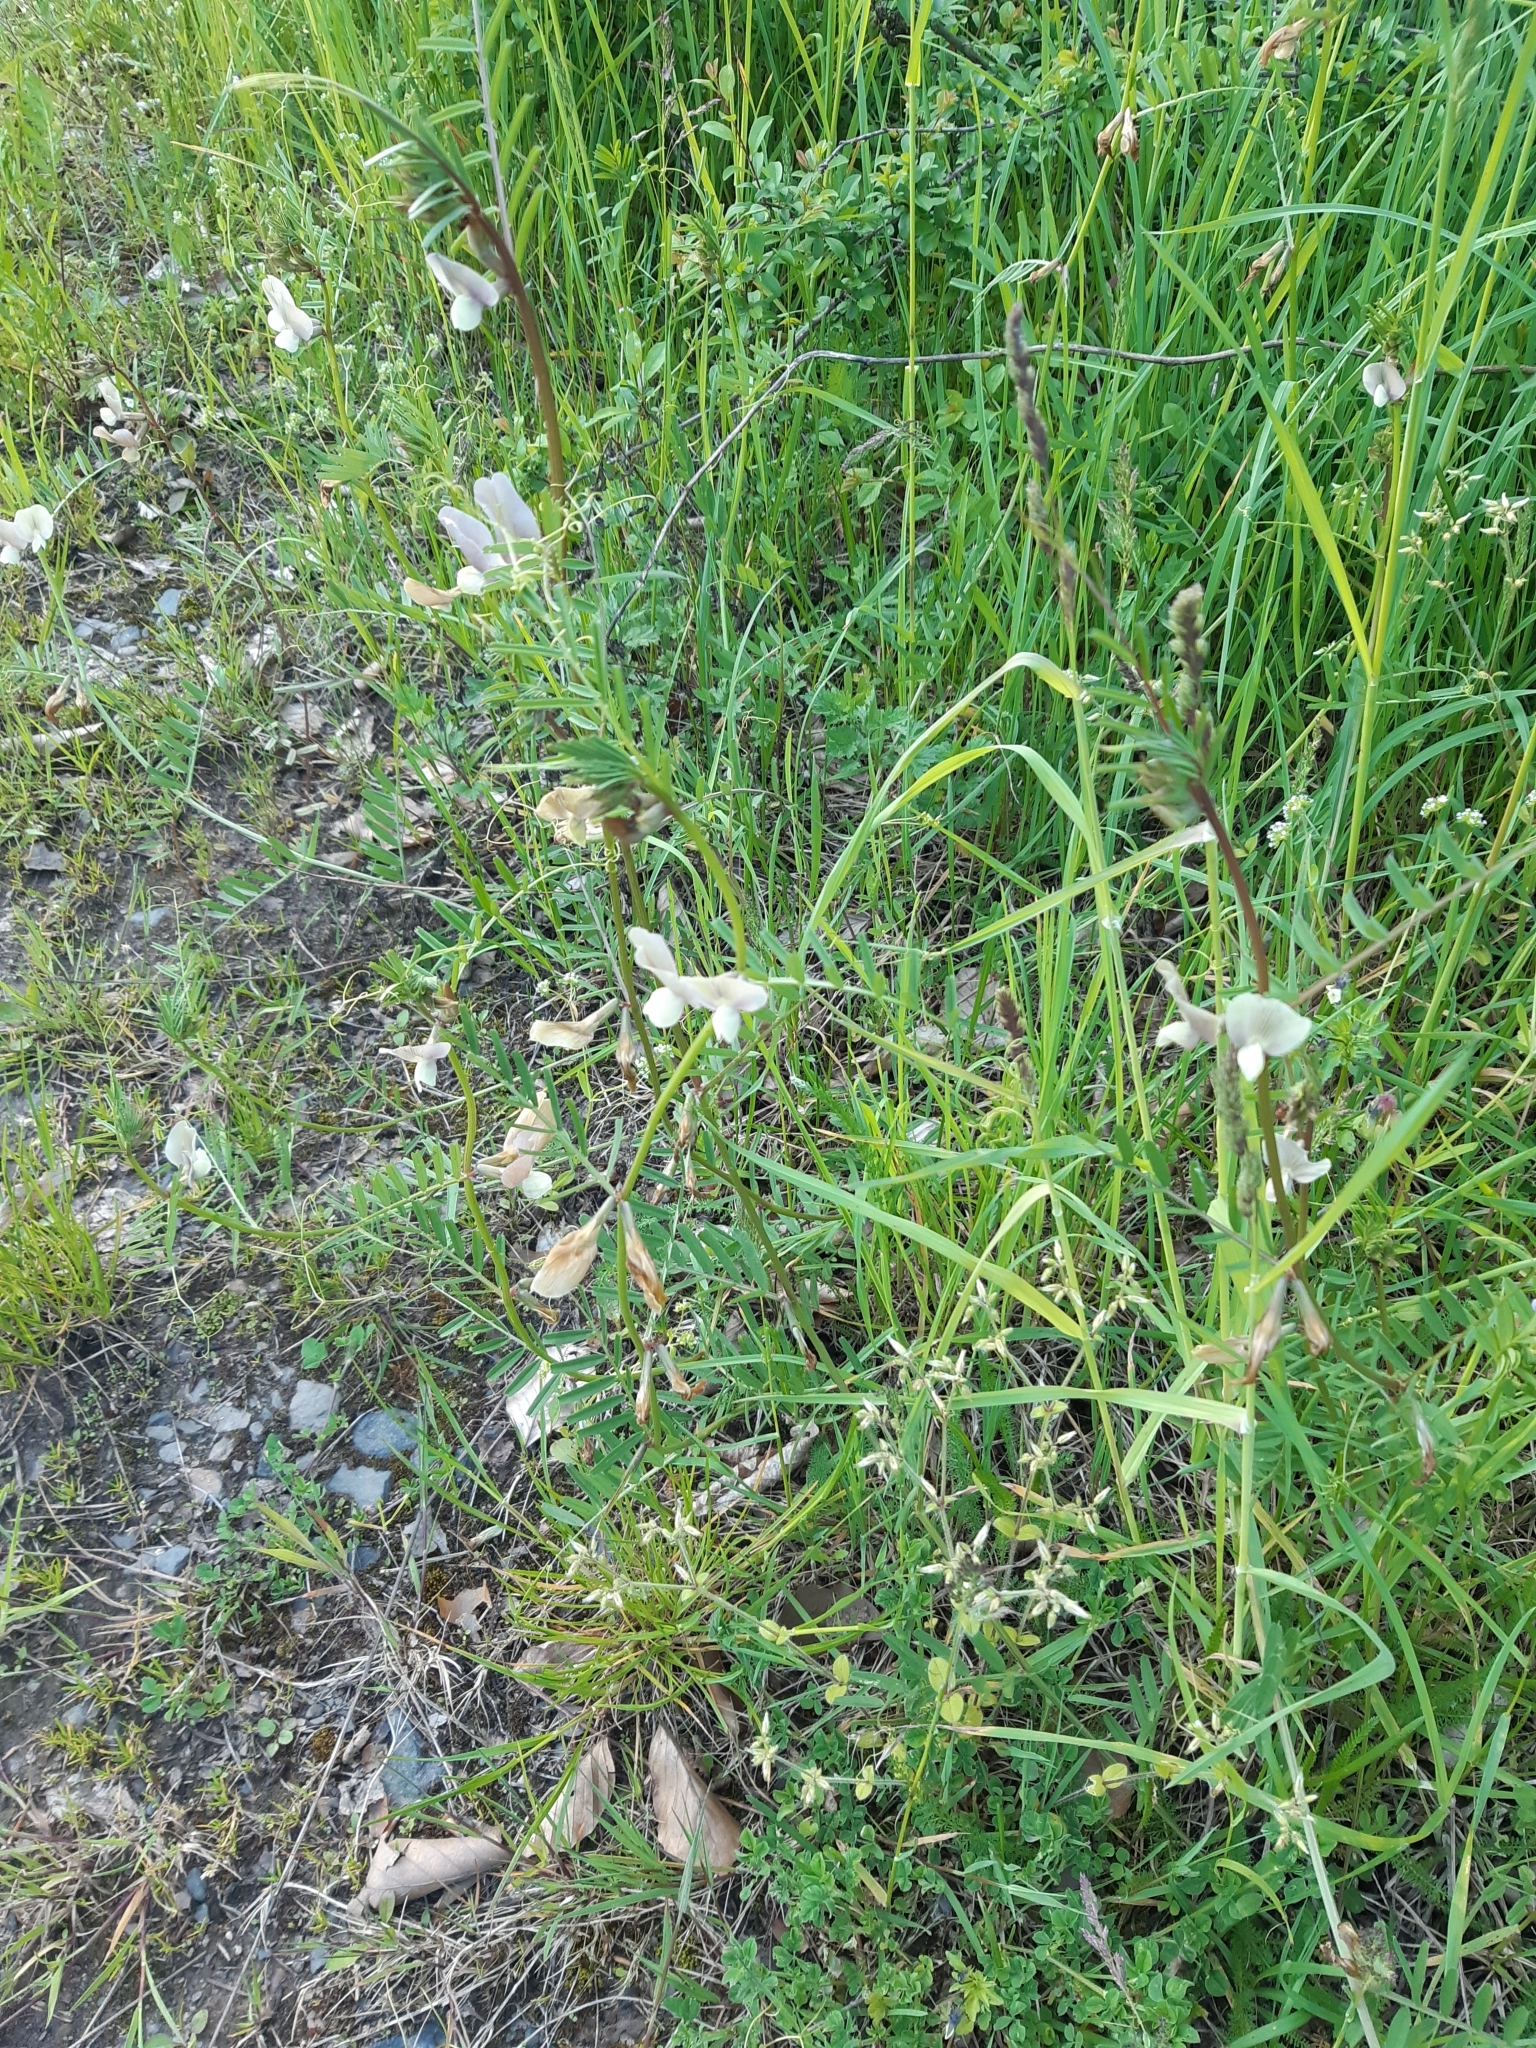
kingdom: Plantae
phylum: Tracheophyta
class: Magnoliopsida
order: Fabales
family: Fabaceae
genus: Vicia
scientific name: Vicia grandiflora
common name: Large yellow vetch
